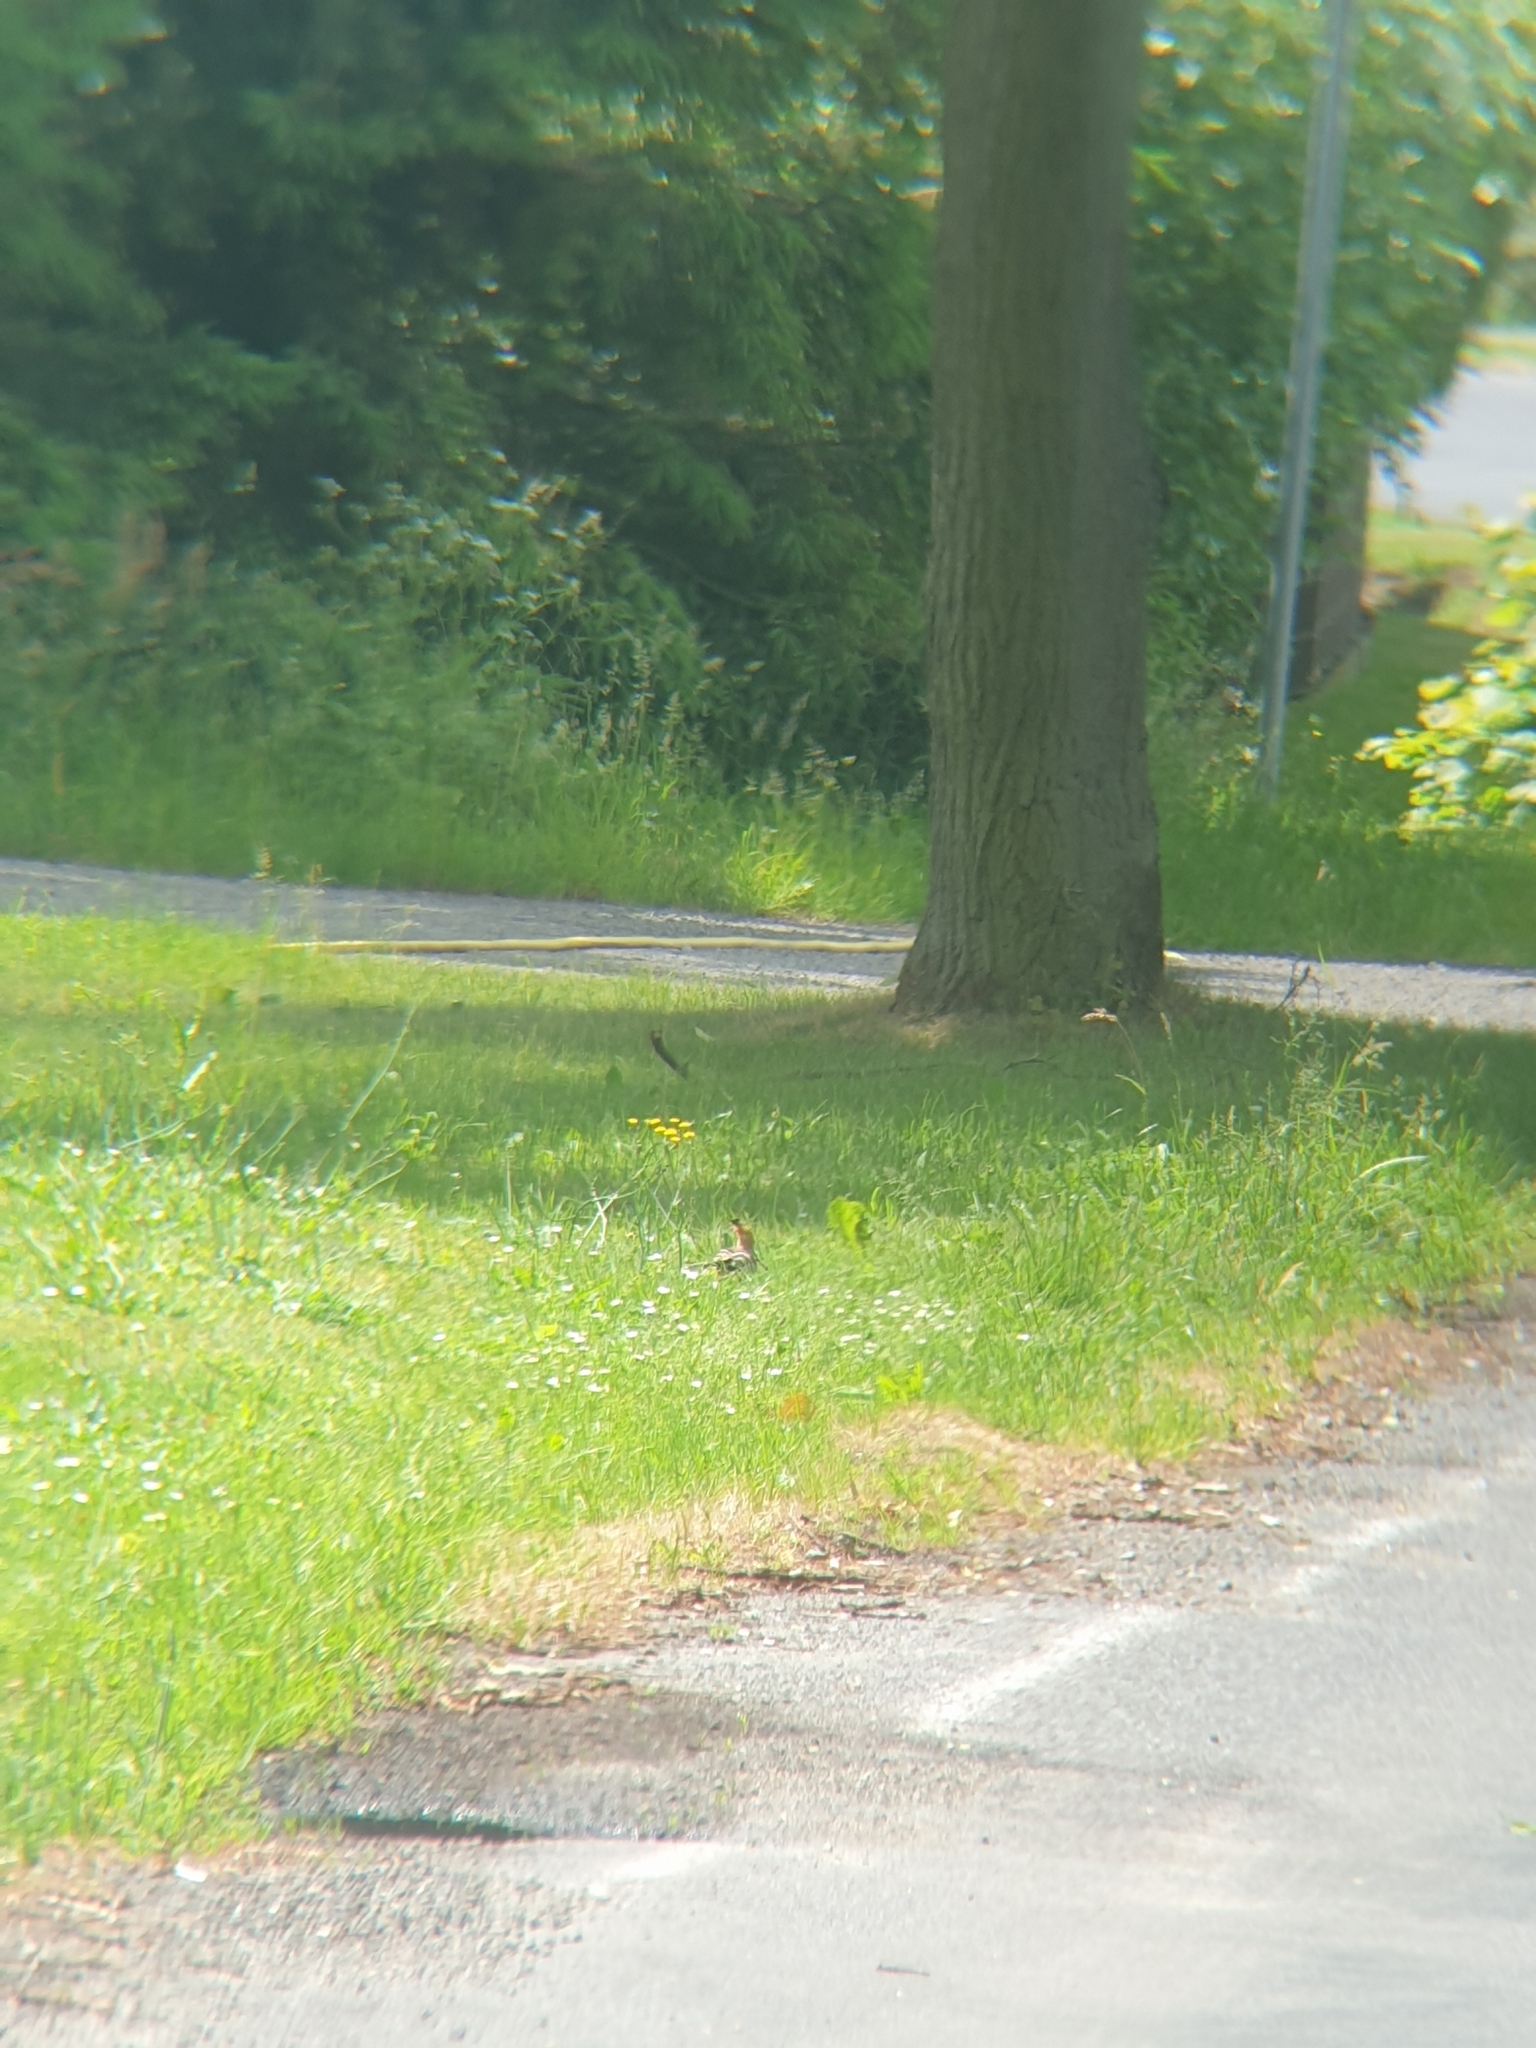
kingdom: Animalia
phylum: Chordata
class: Aves
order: Bucerotiformes
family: Upupidae
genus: Upupa
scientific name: Upupa epops
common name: Eurasian hoopoe
